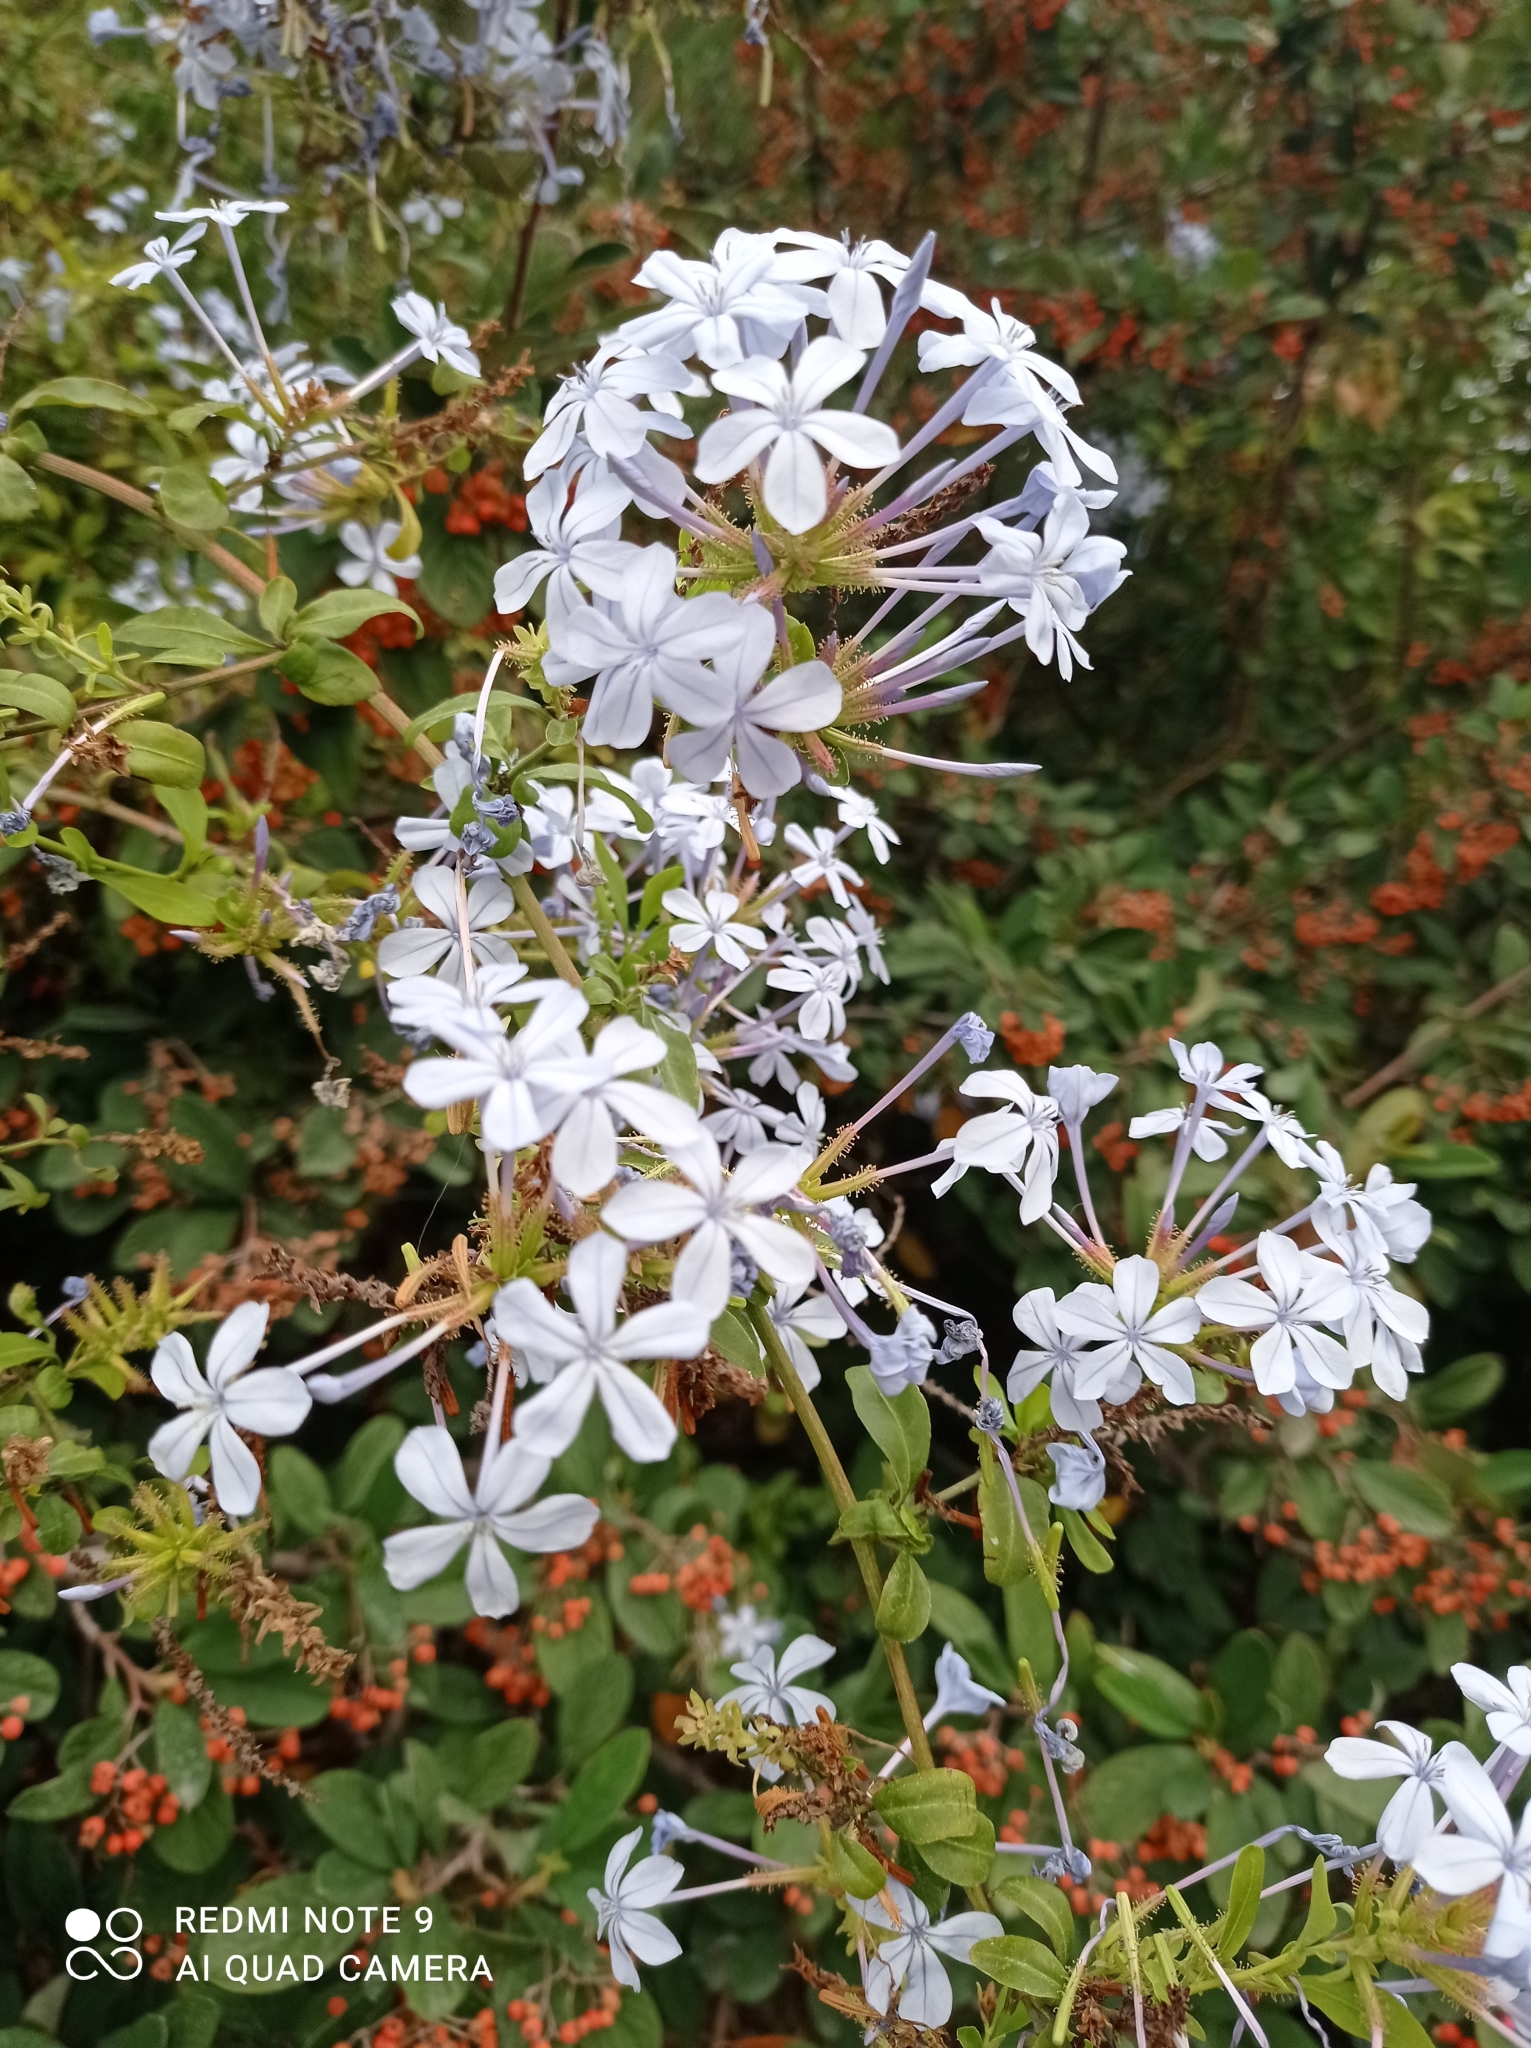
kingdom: Plantae
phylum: Tracheophyta
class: Magnoliopsida
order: Caryophyllales
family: Plumbaginaceae
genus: Plumbago
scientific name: Plumbago auriculata
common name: Cape leadwort
